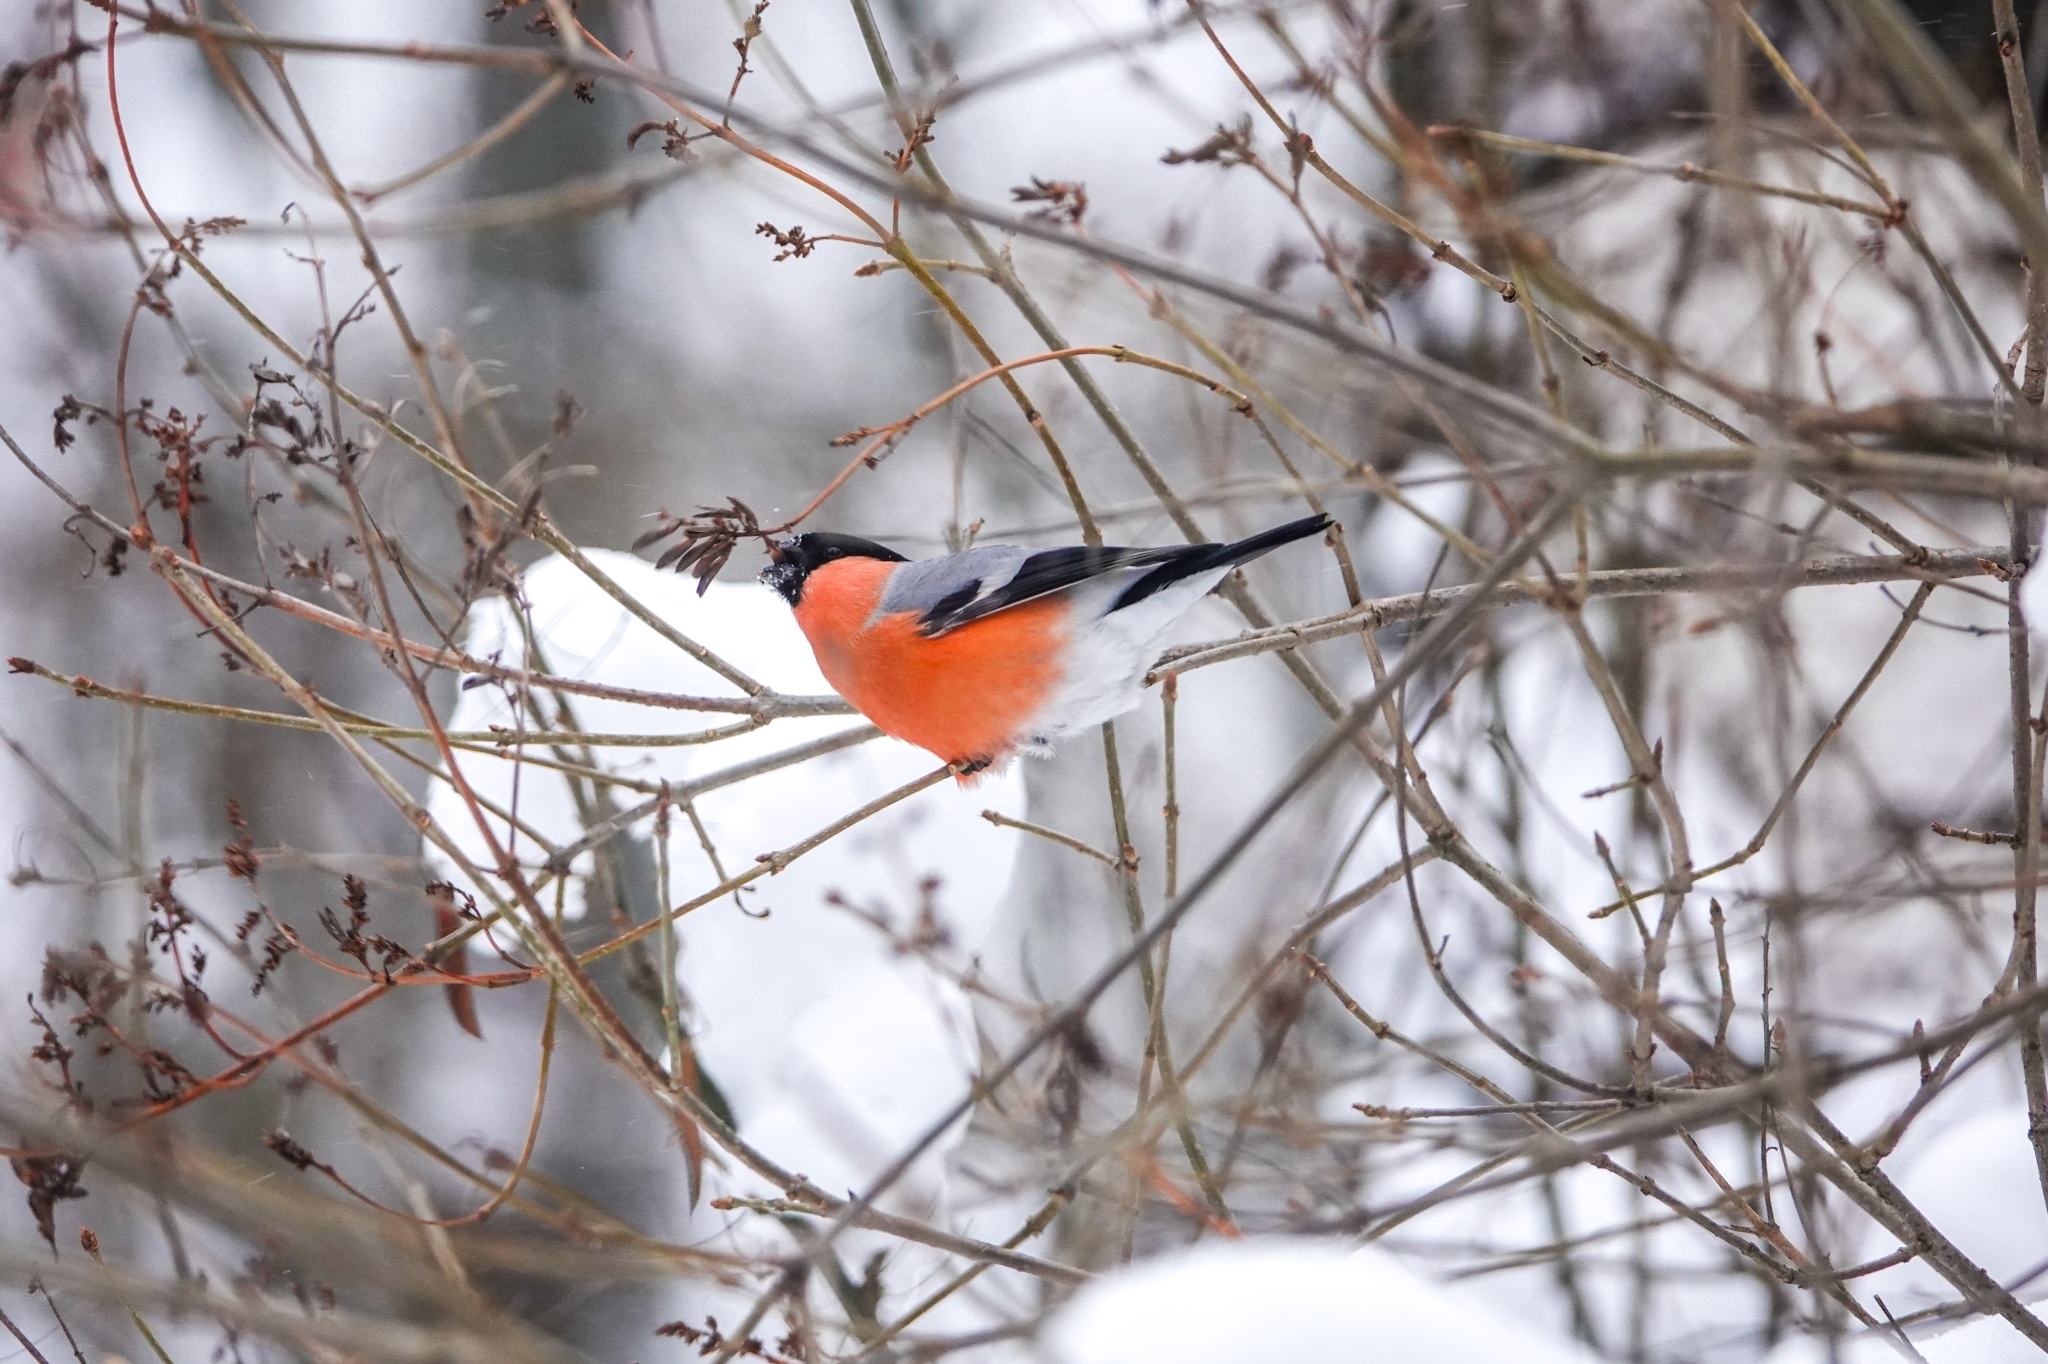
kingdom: Animalia
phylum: Chordata
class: Aves
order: Passeriformes
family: Fringillidae
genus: Pyrrhula
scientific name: Pyrrhula pyrrhula
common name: Eurasian bullfinch
